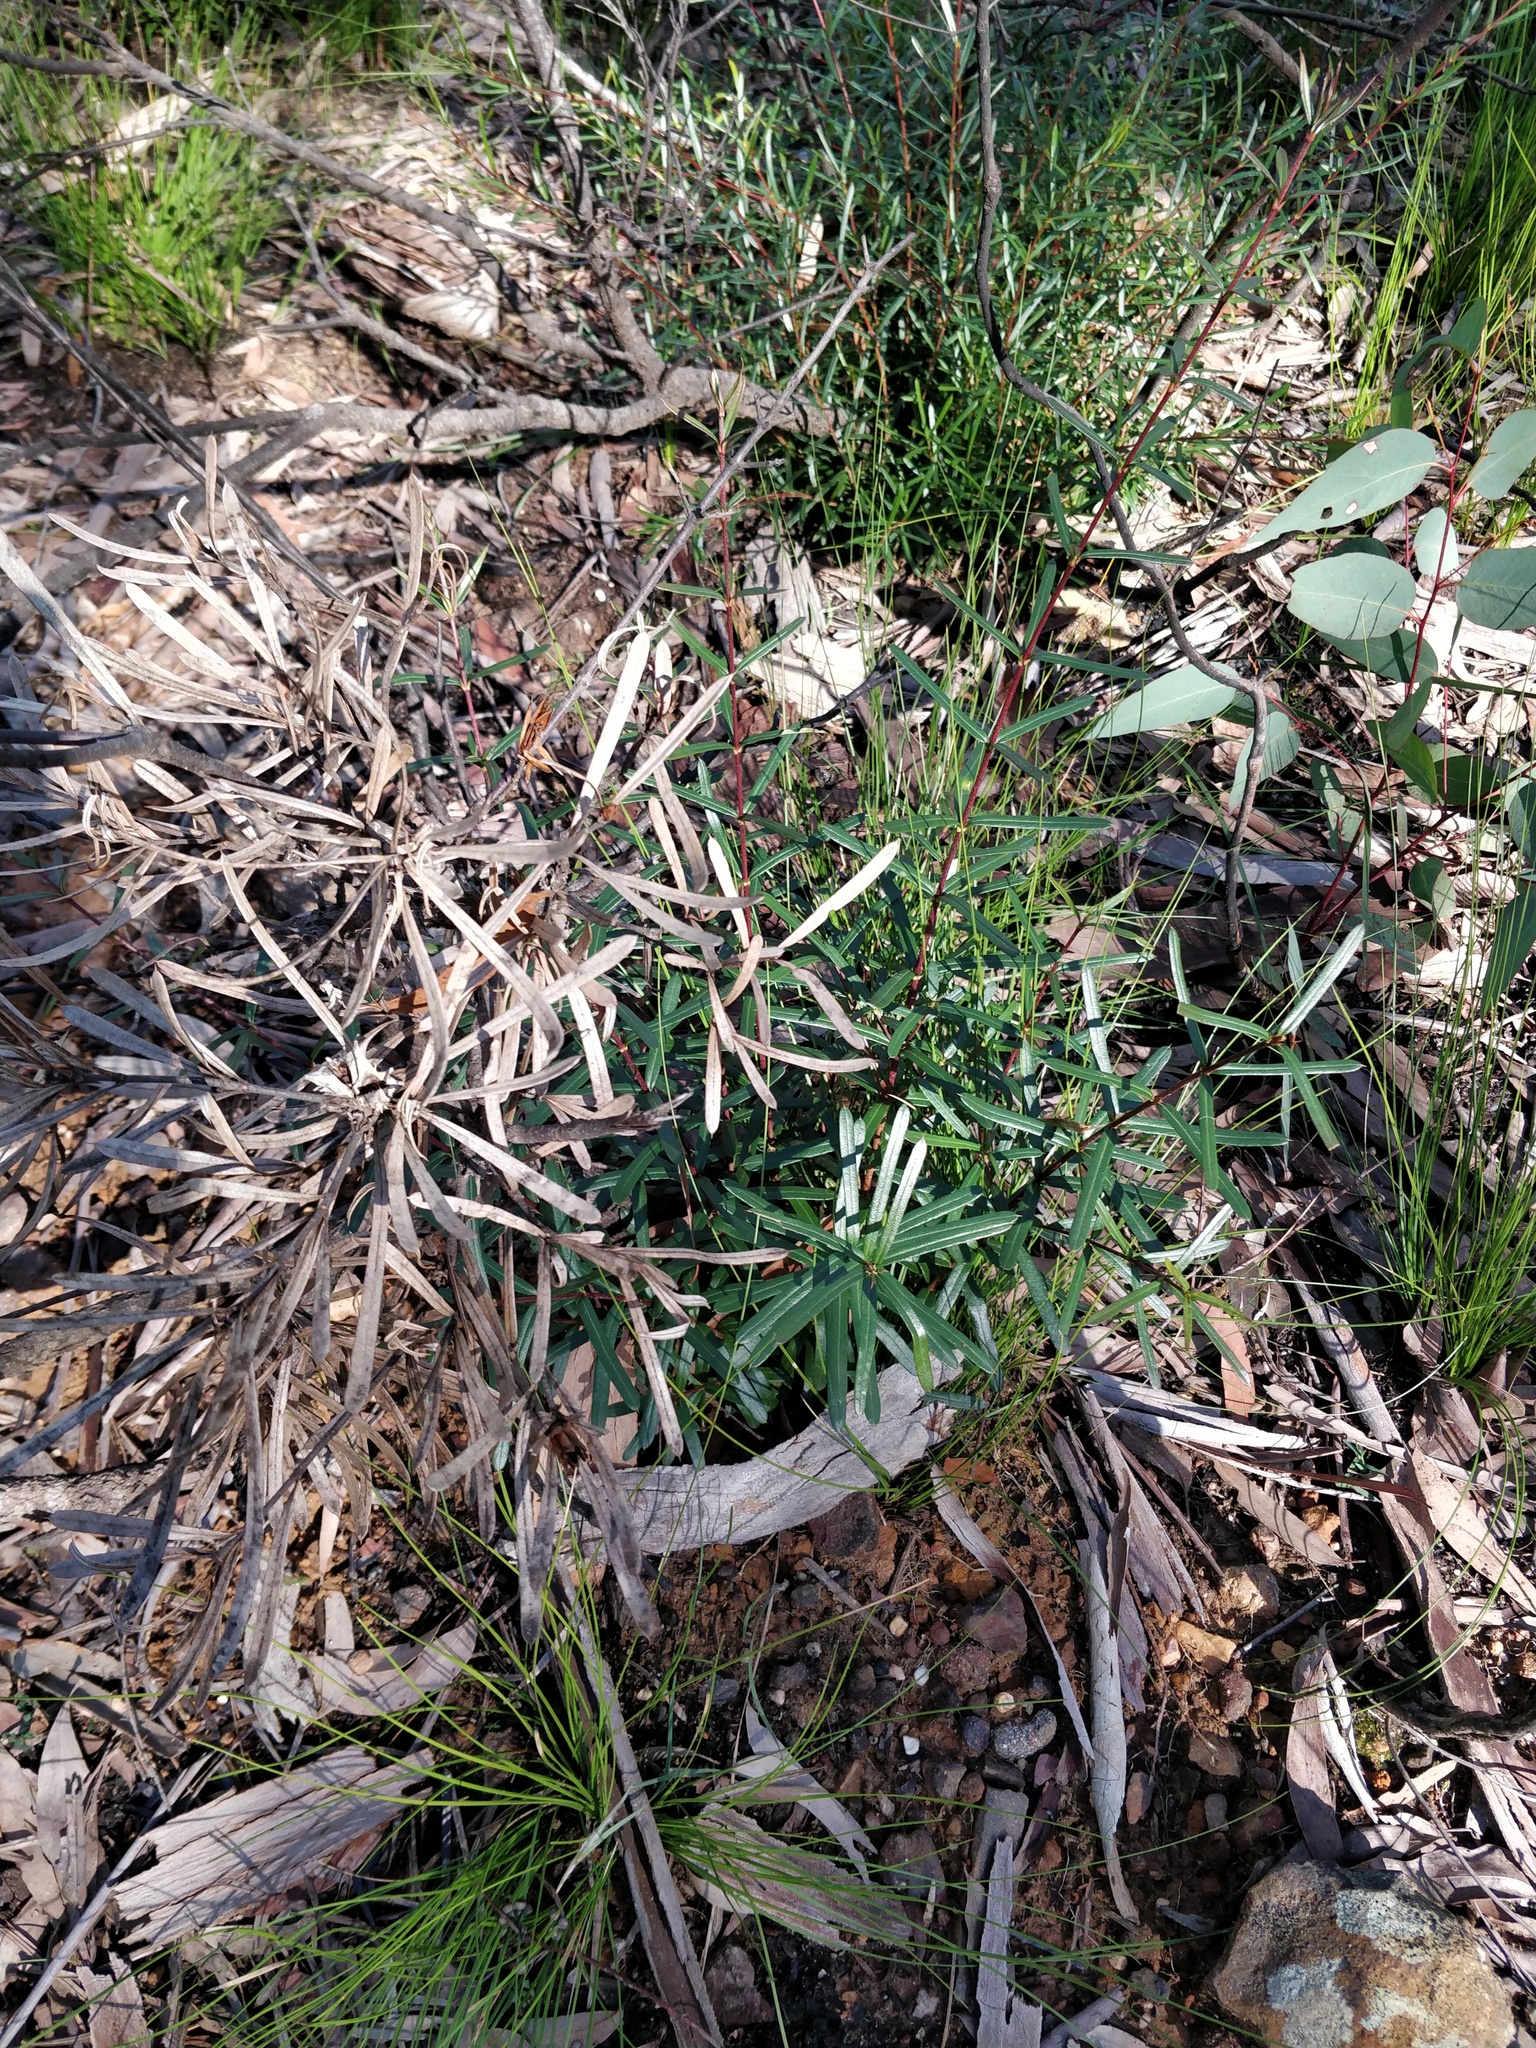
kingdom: Plantae
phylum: Tracheophyta
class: Magnoliopsida
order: Proteales
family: Proteaceae
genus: Lambertia
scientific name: Lambertia formosa
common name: Mountain-devil
